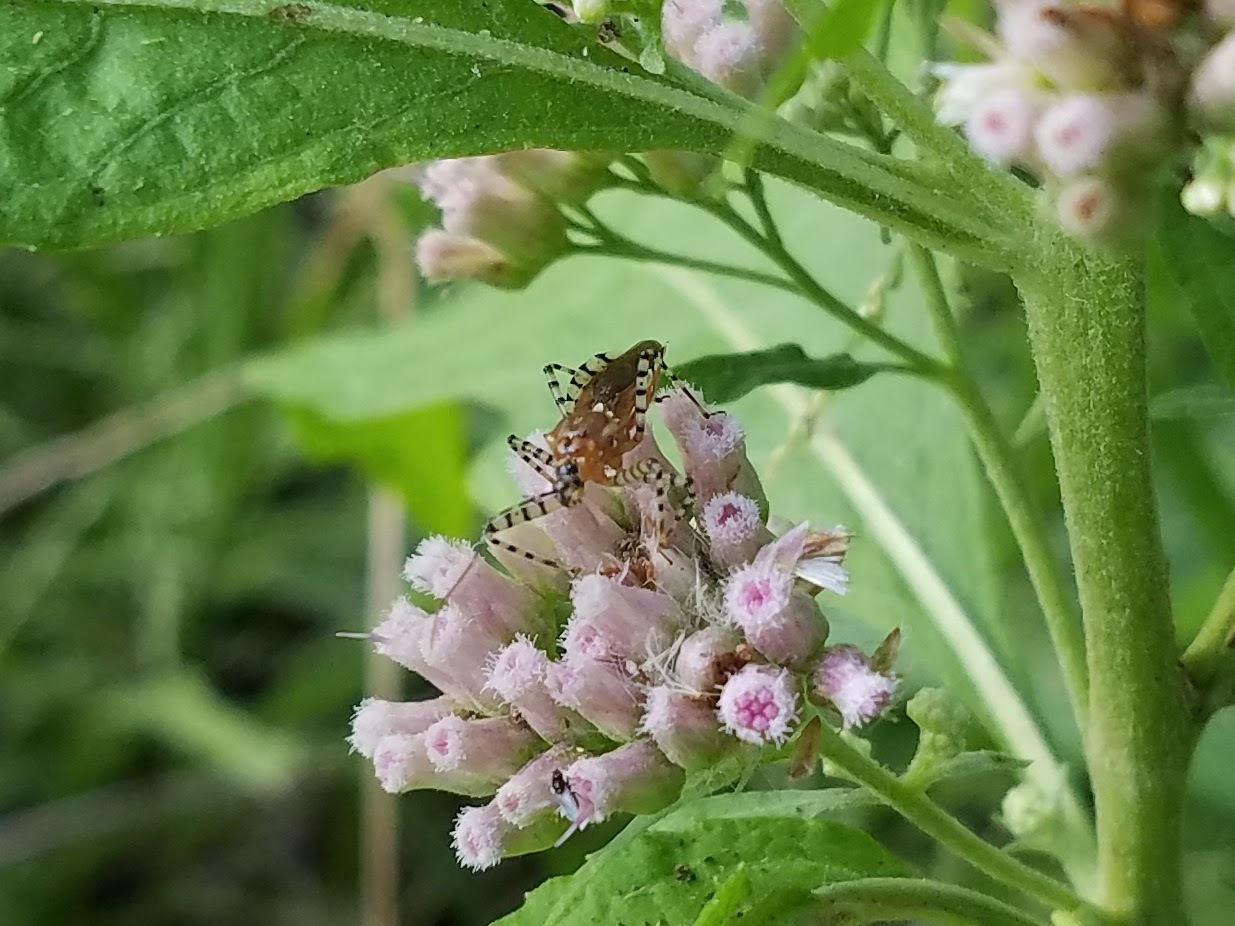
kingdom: Animalia
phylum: Arthropoda
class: Insecta
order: Hemiptera
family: Reduviidae
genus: Pselliopus
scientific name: Pselliopus cinctus
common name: Ringed assassin bug
